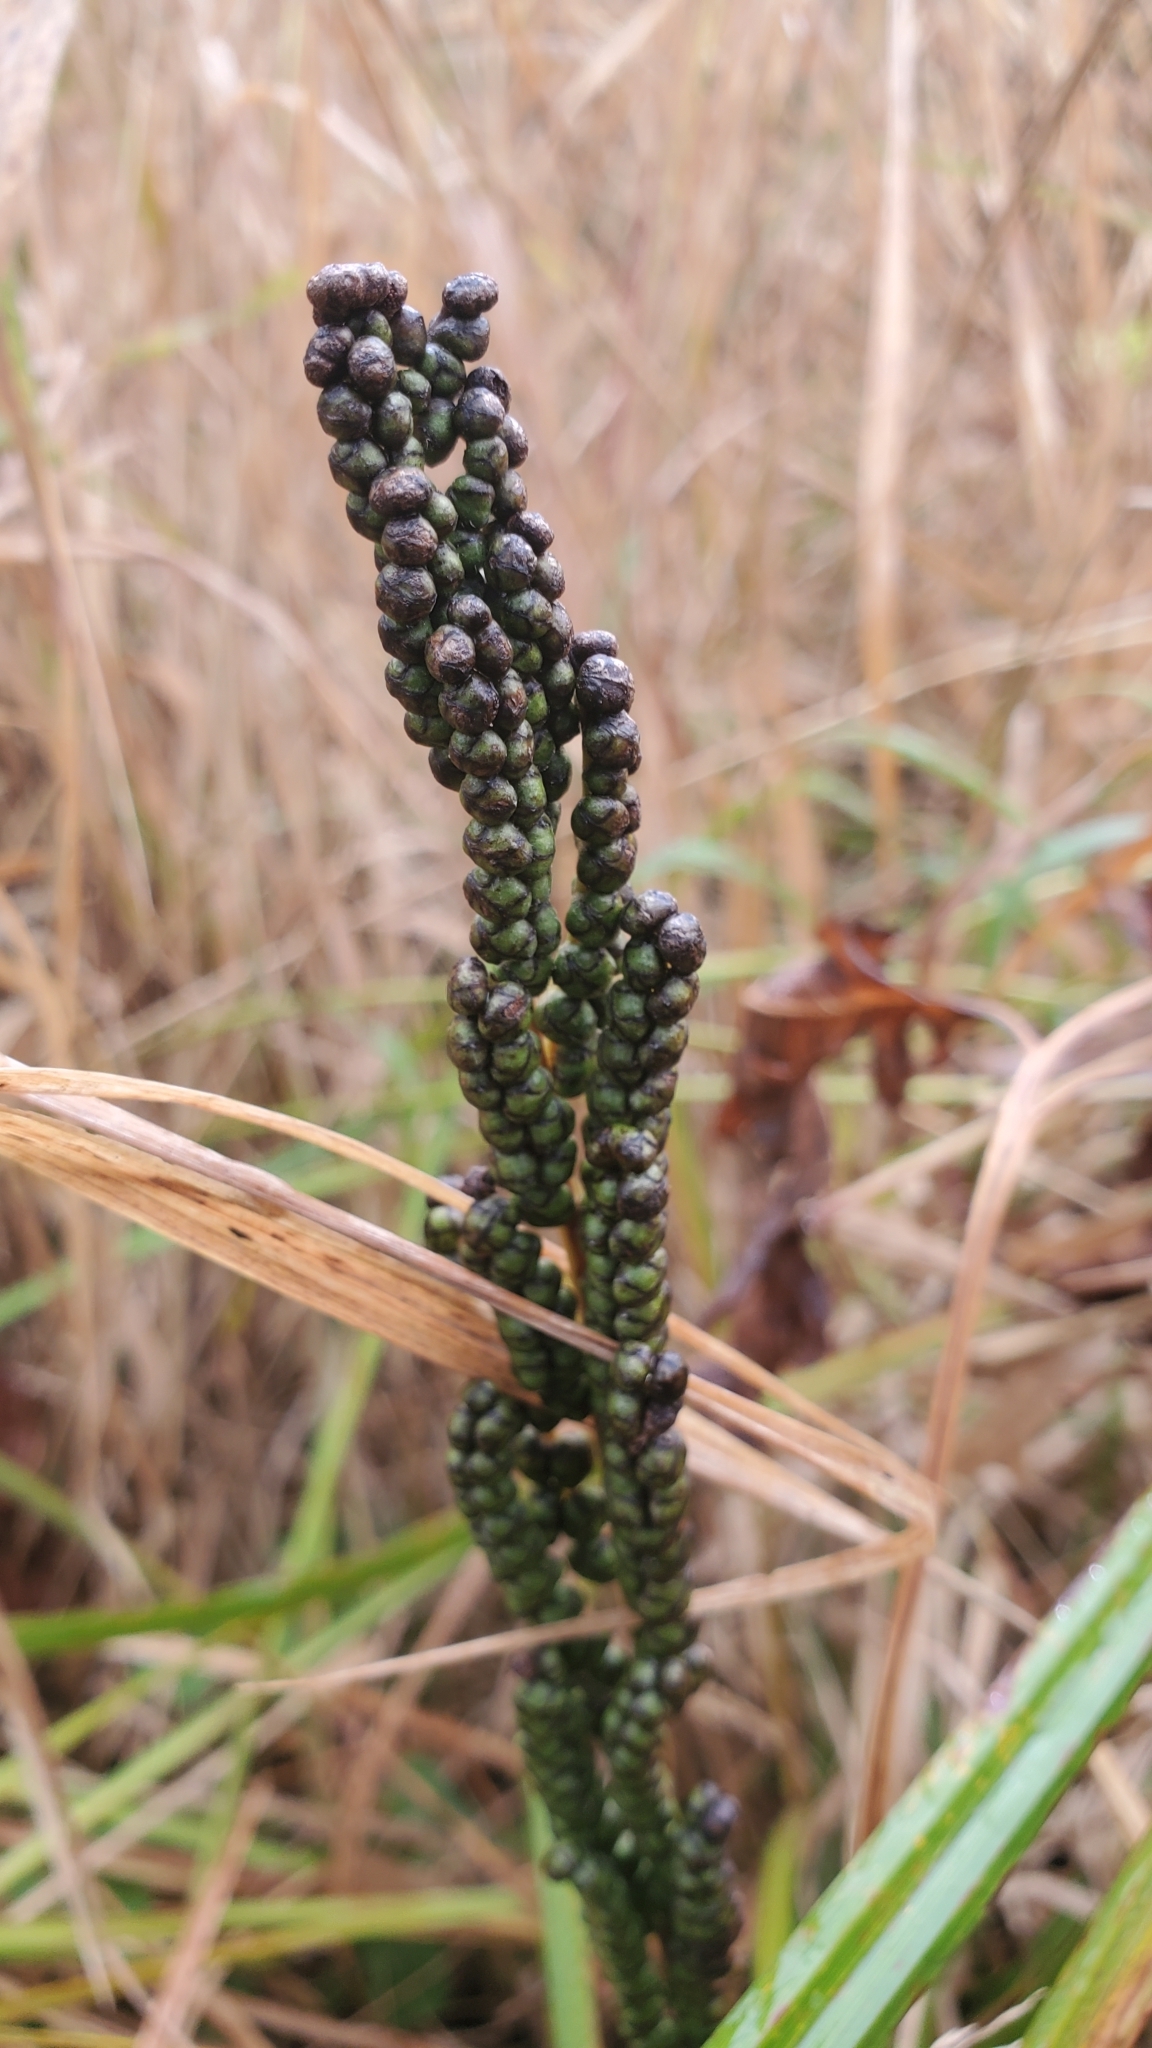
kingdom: Plantae
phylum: Tracheophyta
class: Polypodiopsida
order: Polypodiales
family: Onocleaceae
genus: Onoclea
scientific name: Onoclea sensibilis
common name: Sensitive fern
